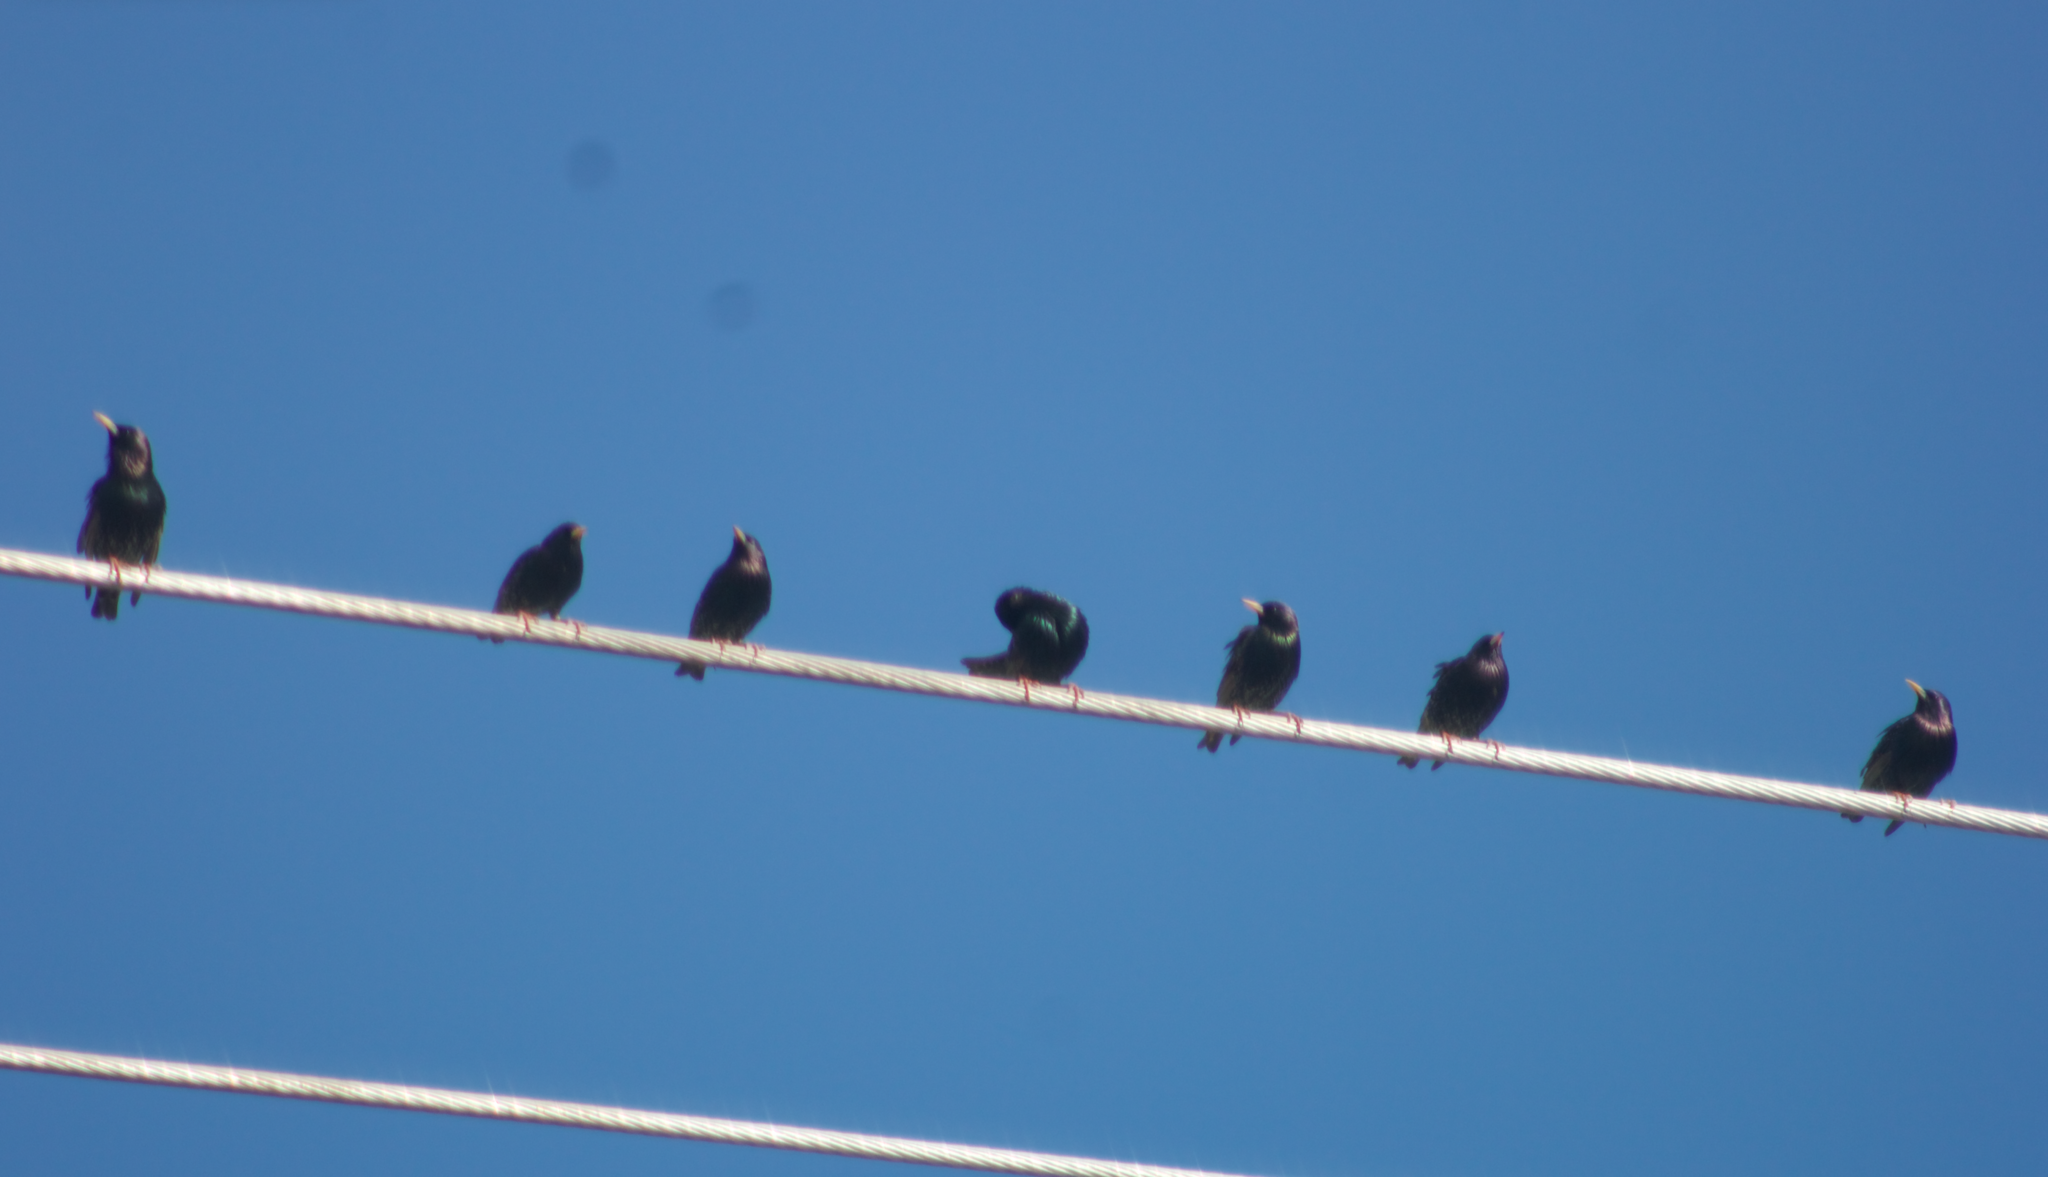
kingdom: Animalia
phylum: Chordata
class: Aves
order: Passeriformes
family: Sturnidae
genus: Sturnus
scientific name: Sturnus vulgaris
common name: Common starling
